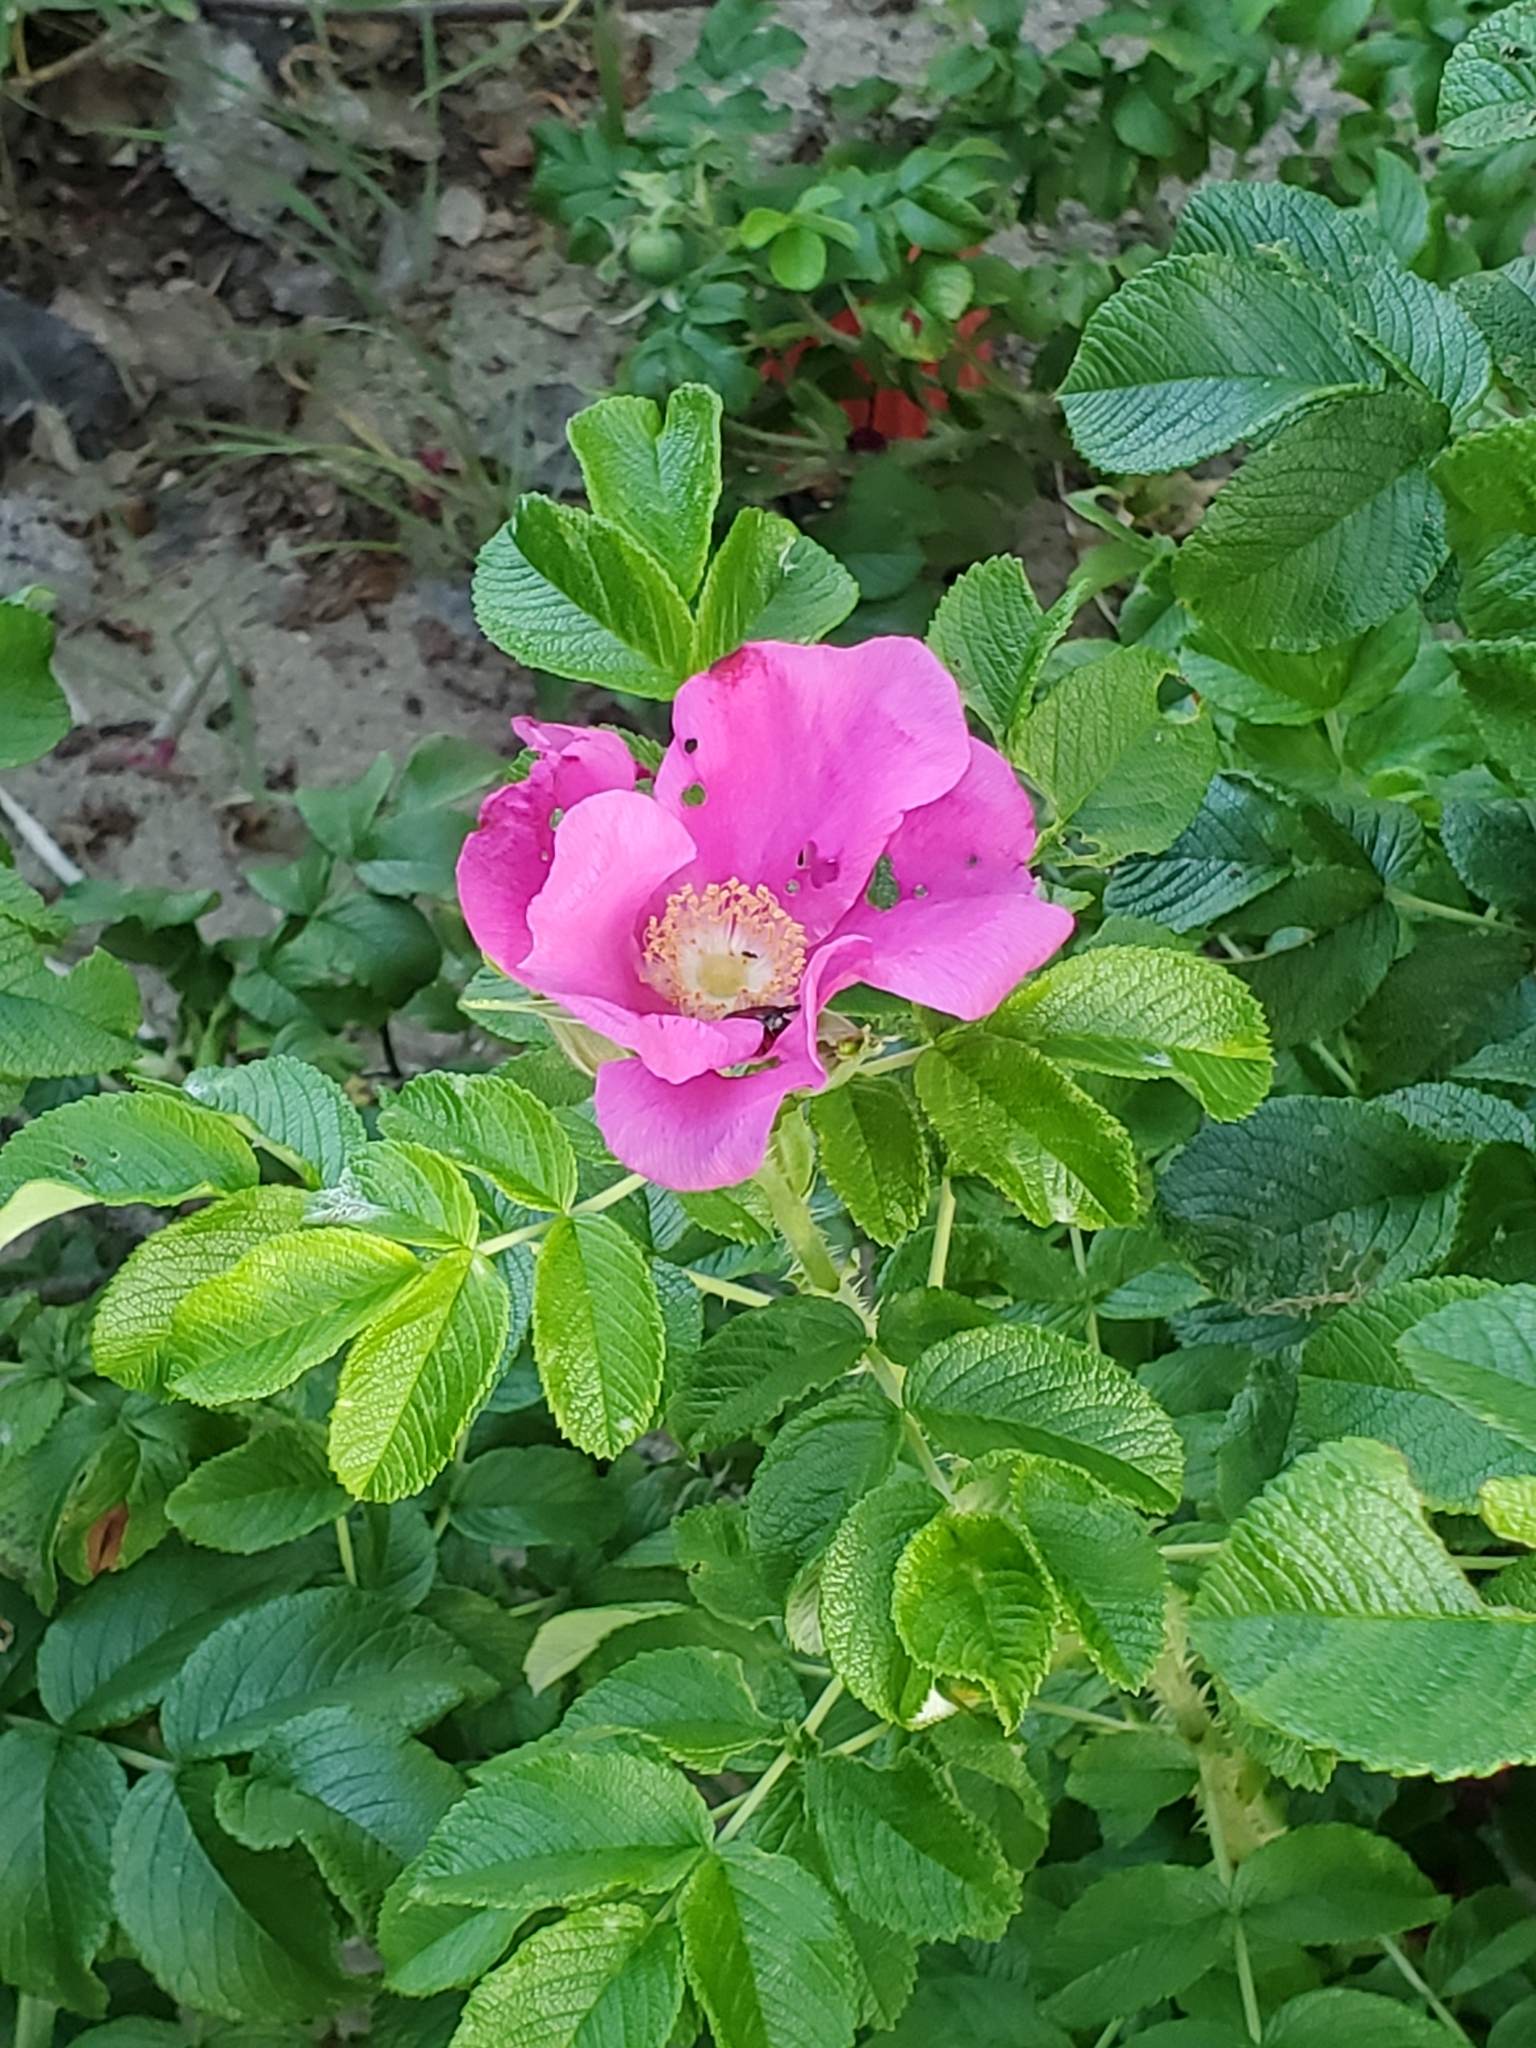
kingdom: Plantae
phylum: Tracheophyta
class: Magnoliopsida
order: Rosales
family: Rosaceae
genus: Rosa
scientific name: Rosa rugosa
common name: Japanese rose
